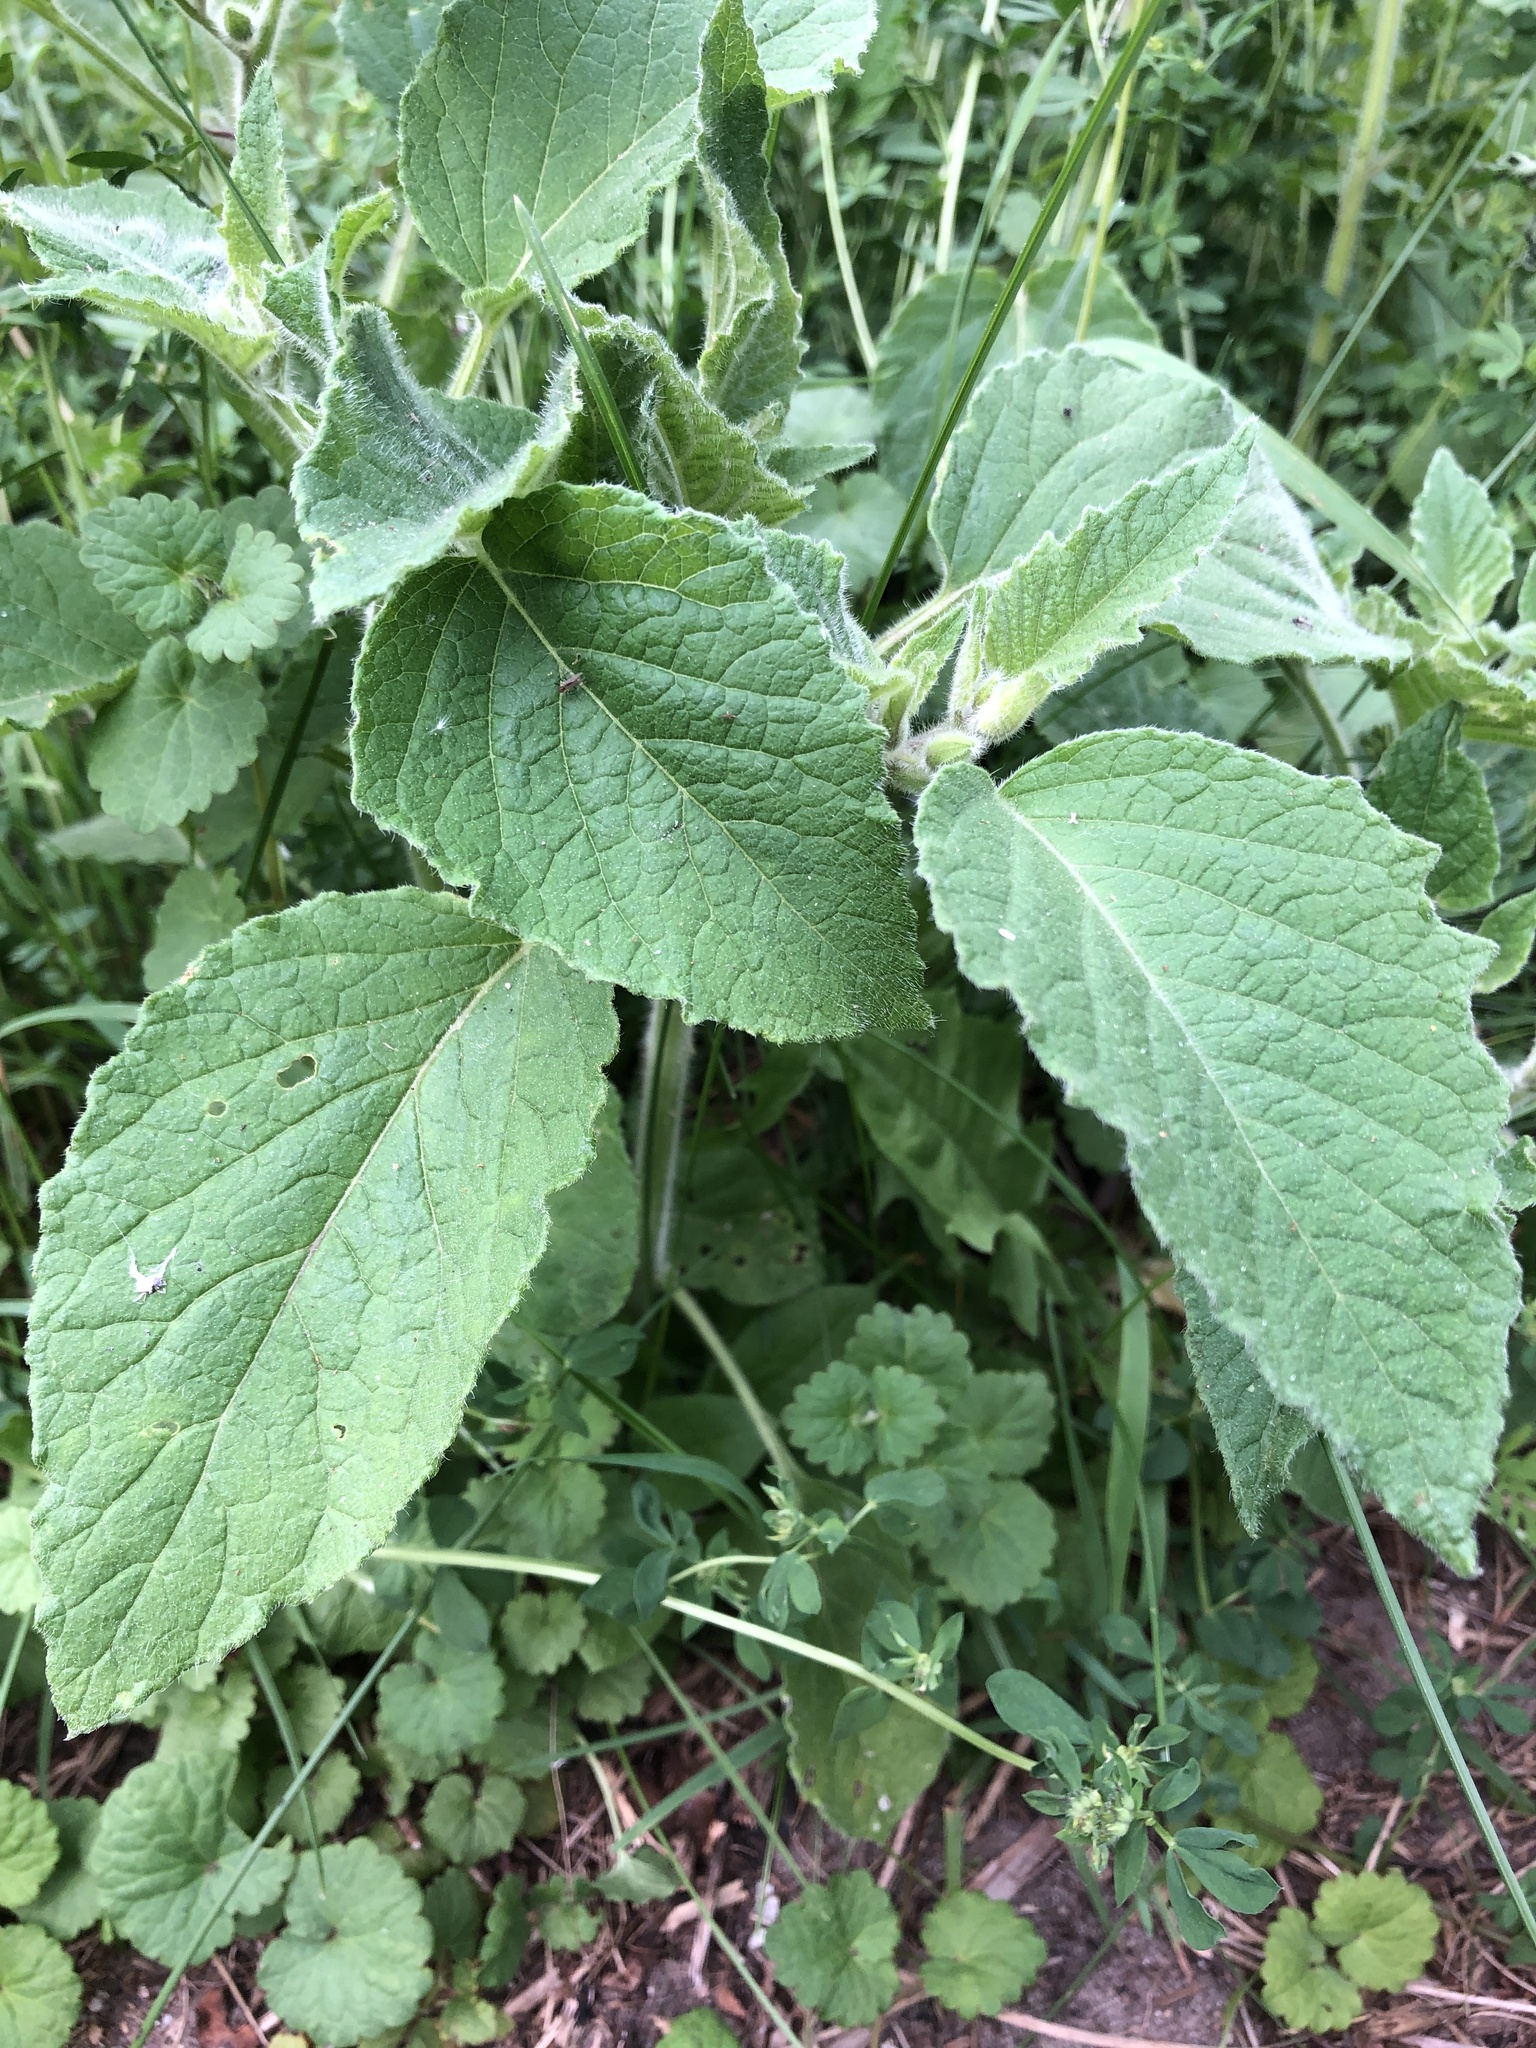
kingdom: Plantae
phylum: Tracheophyta
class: Magnoliopsida
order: Solanales
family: Solanaceae
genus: Physalis
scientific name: Physalis heterophylla
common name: Clammy ground-cherry
